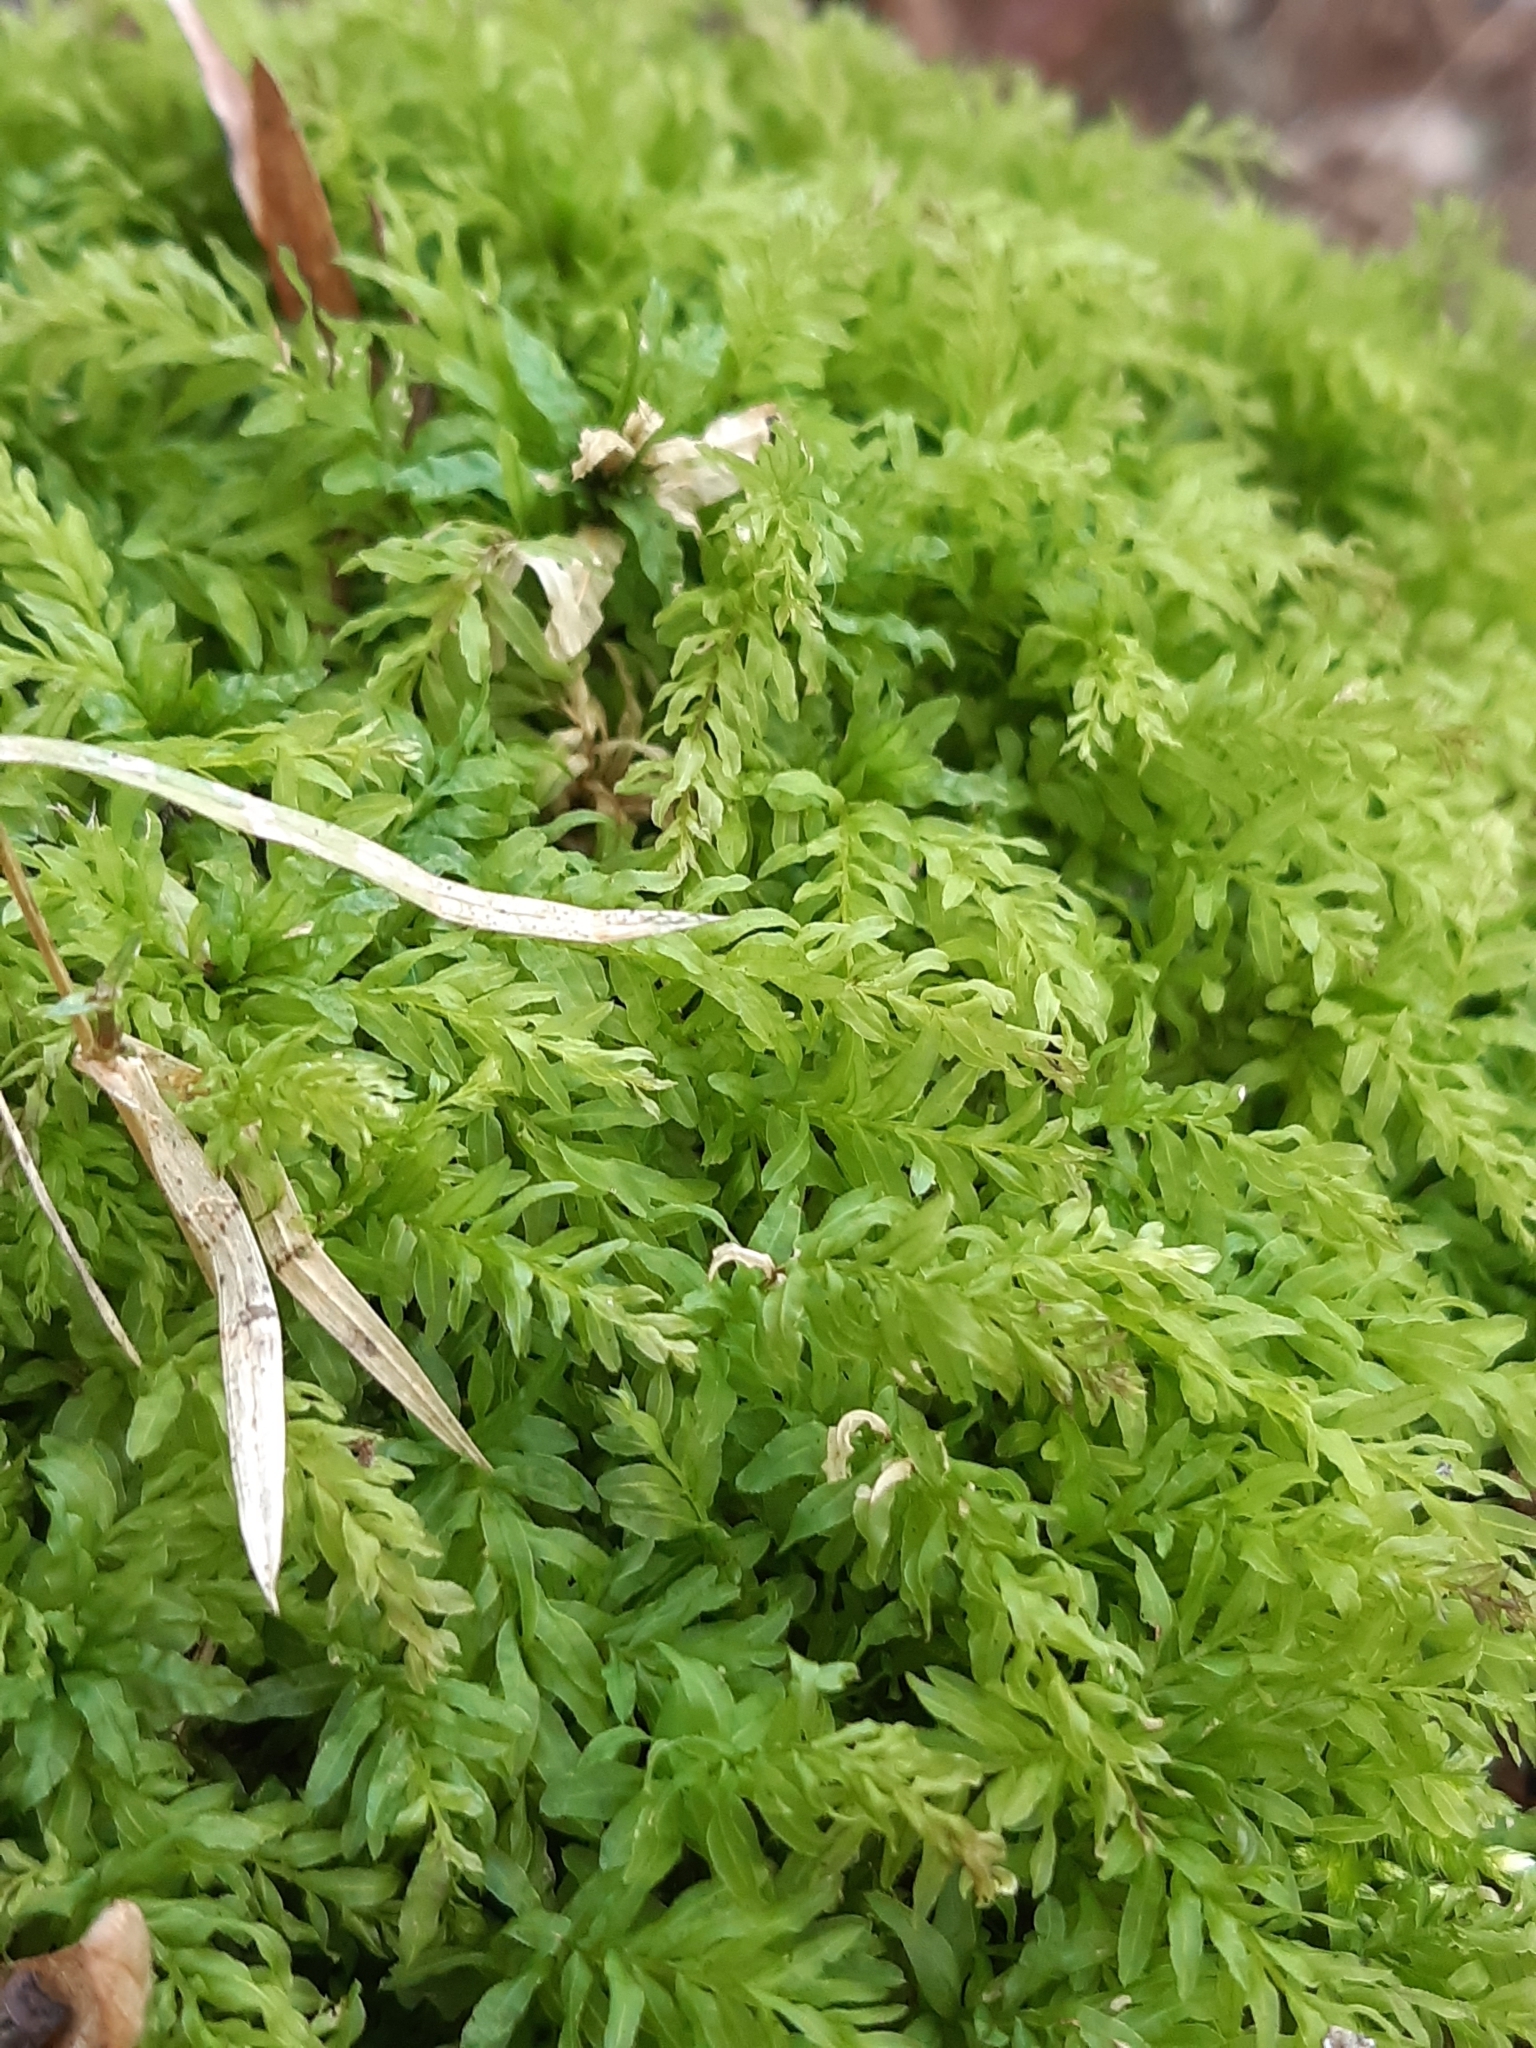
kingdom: Plantae
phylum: Bryophyta
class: Bryopsida
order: Bryales
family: Mniaceae
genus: Plagiomnium
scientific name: Plagiomnium undulatum
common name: Hart's-tongue thyme-moss
